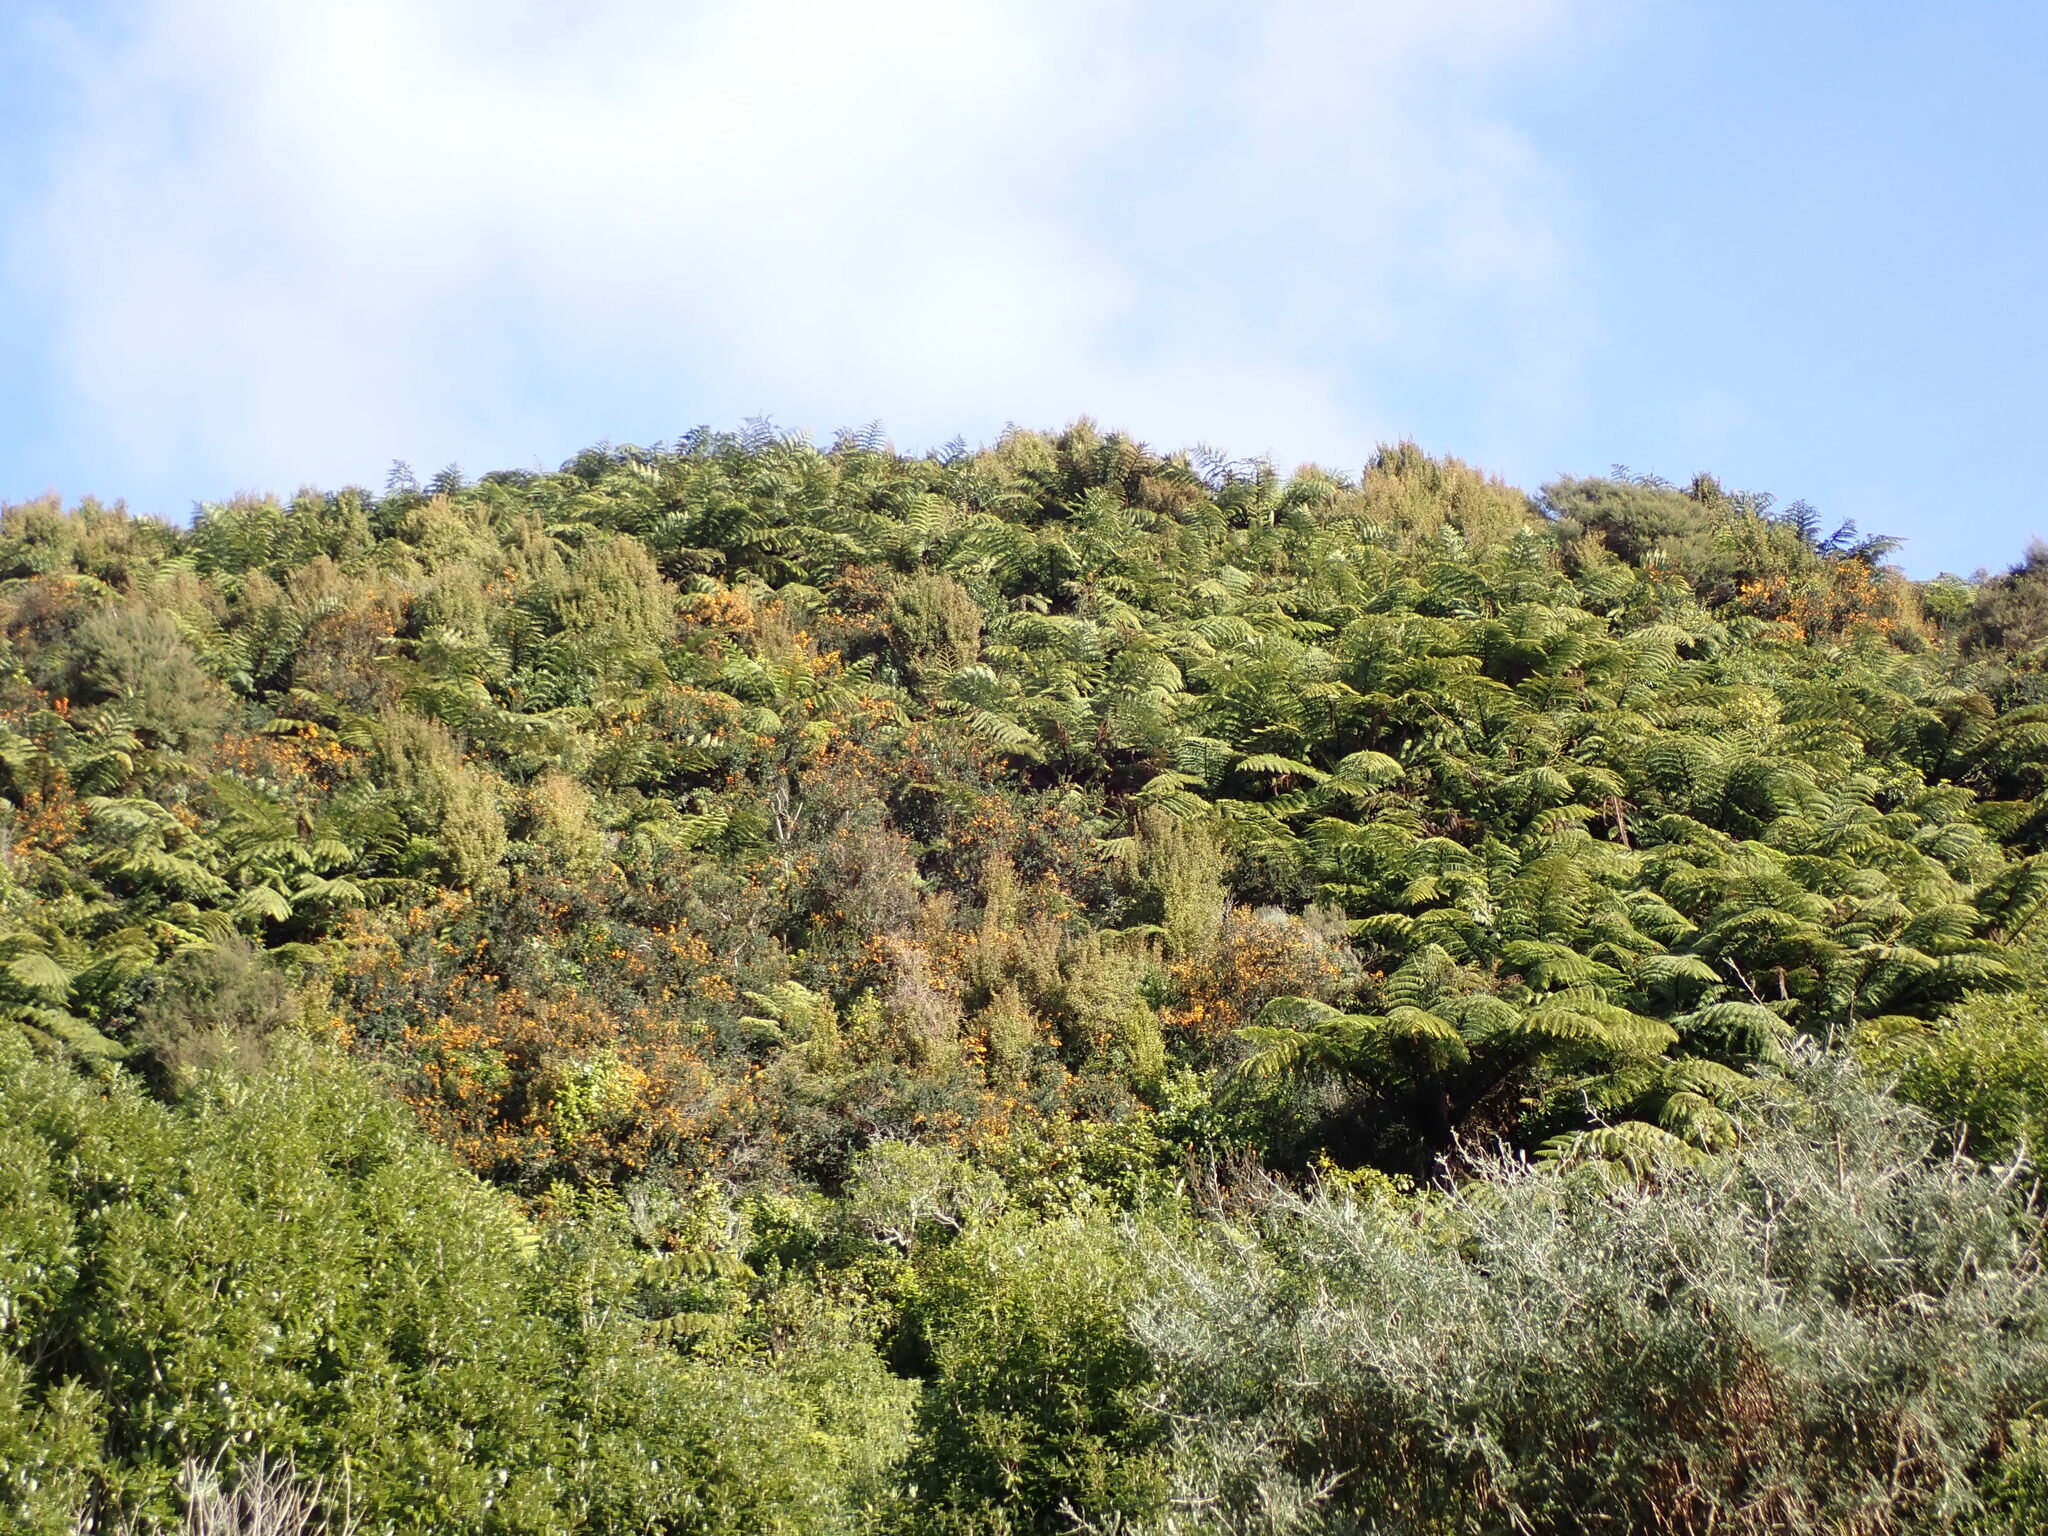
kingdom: Plantae
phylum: Tracheophyta
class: Magnoliopsida
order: Ranunculales
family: Berberidaceae
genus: Berberis
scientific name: Berberis darwinii
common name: Darwin's barberry
